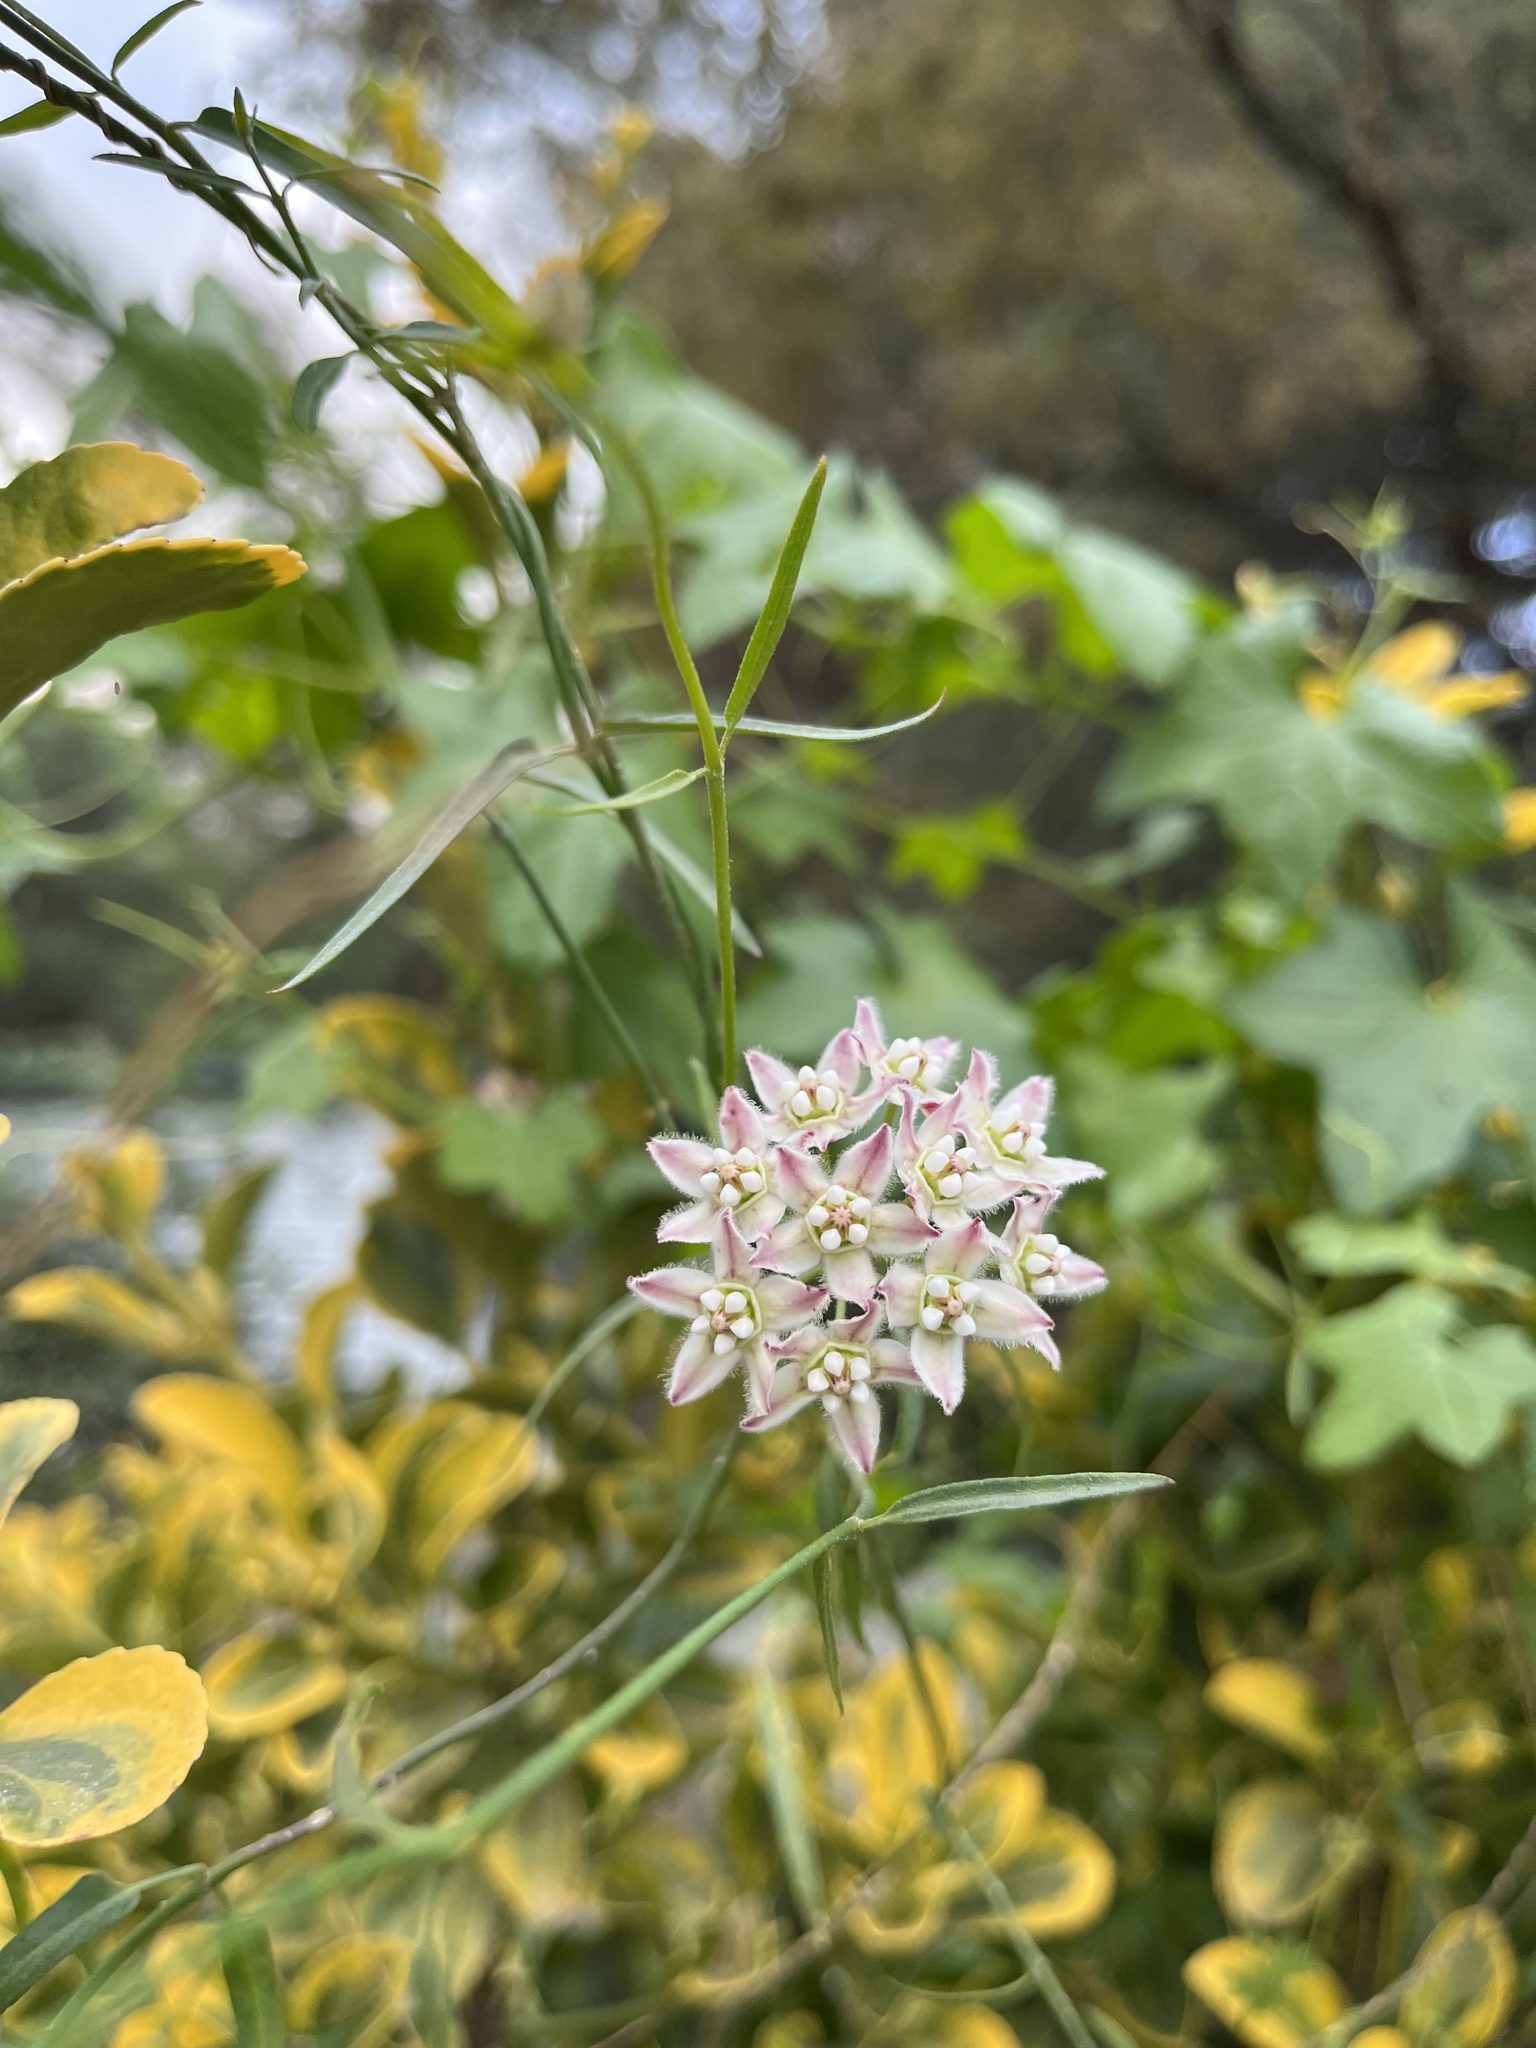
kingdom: Plantae
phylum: Tracheophyta
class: Magnoliopsida
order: Gentianales
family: Apocynaceae
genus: Funastrum
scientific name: Funastrum heterophyllum
